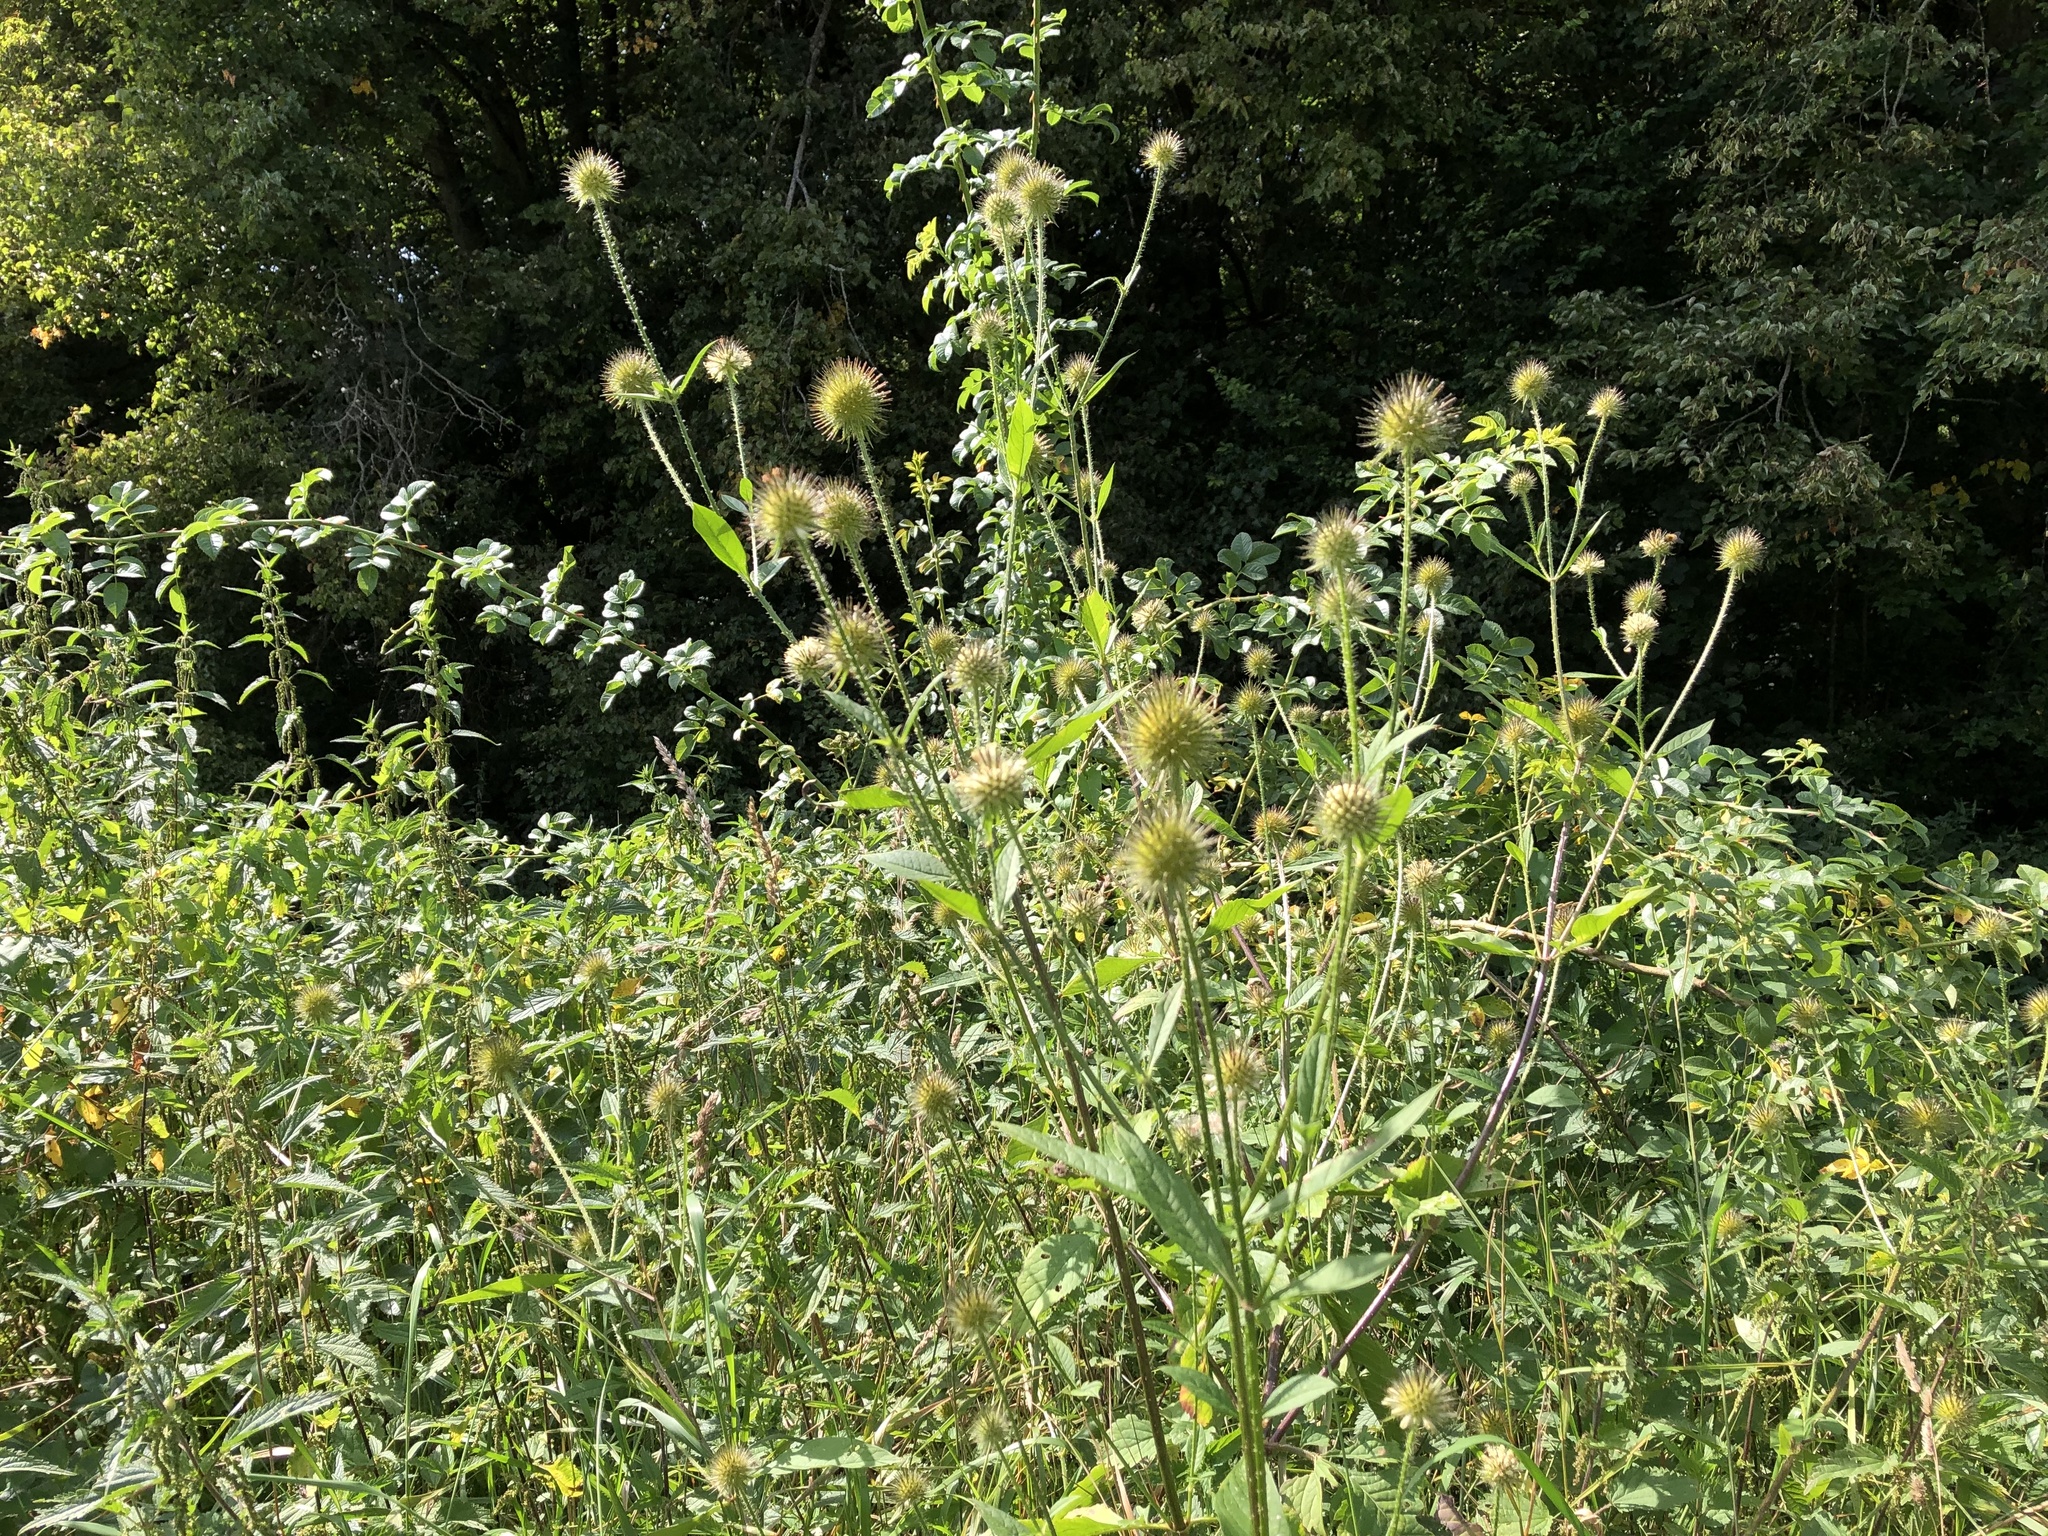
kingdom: Plantae
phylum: Tracheophyta
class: Magnoliopsida
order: Dipsacales
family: Caprifoliaceae
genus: Dipsacus
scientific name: Dipsacus strigosus
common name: Yellow-flowered teasel
